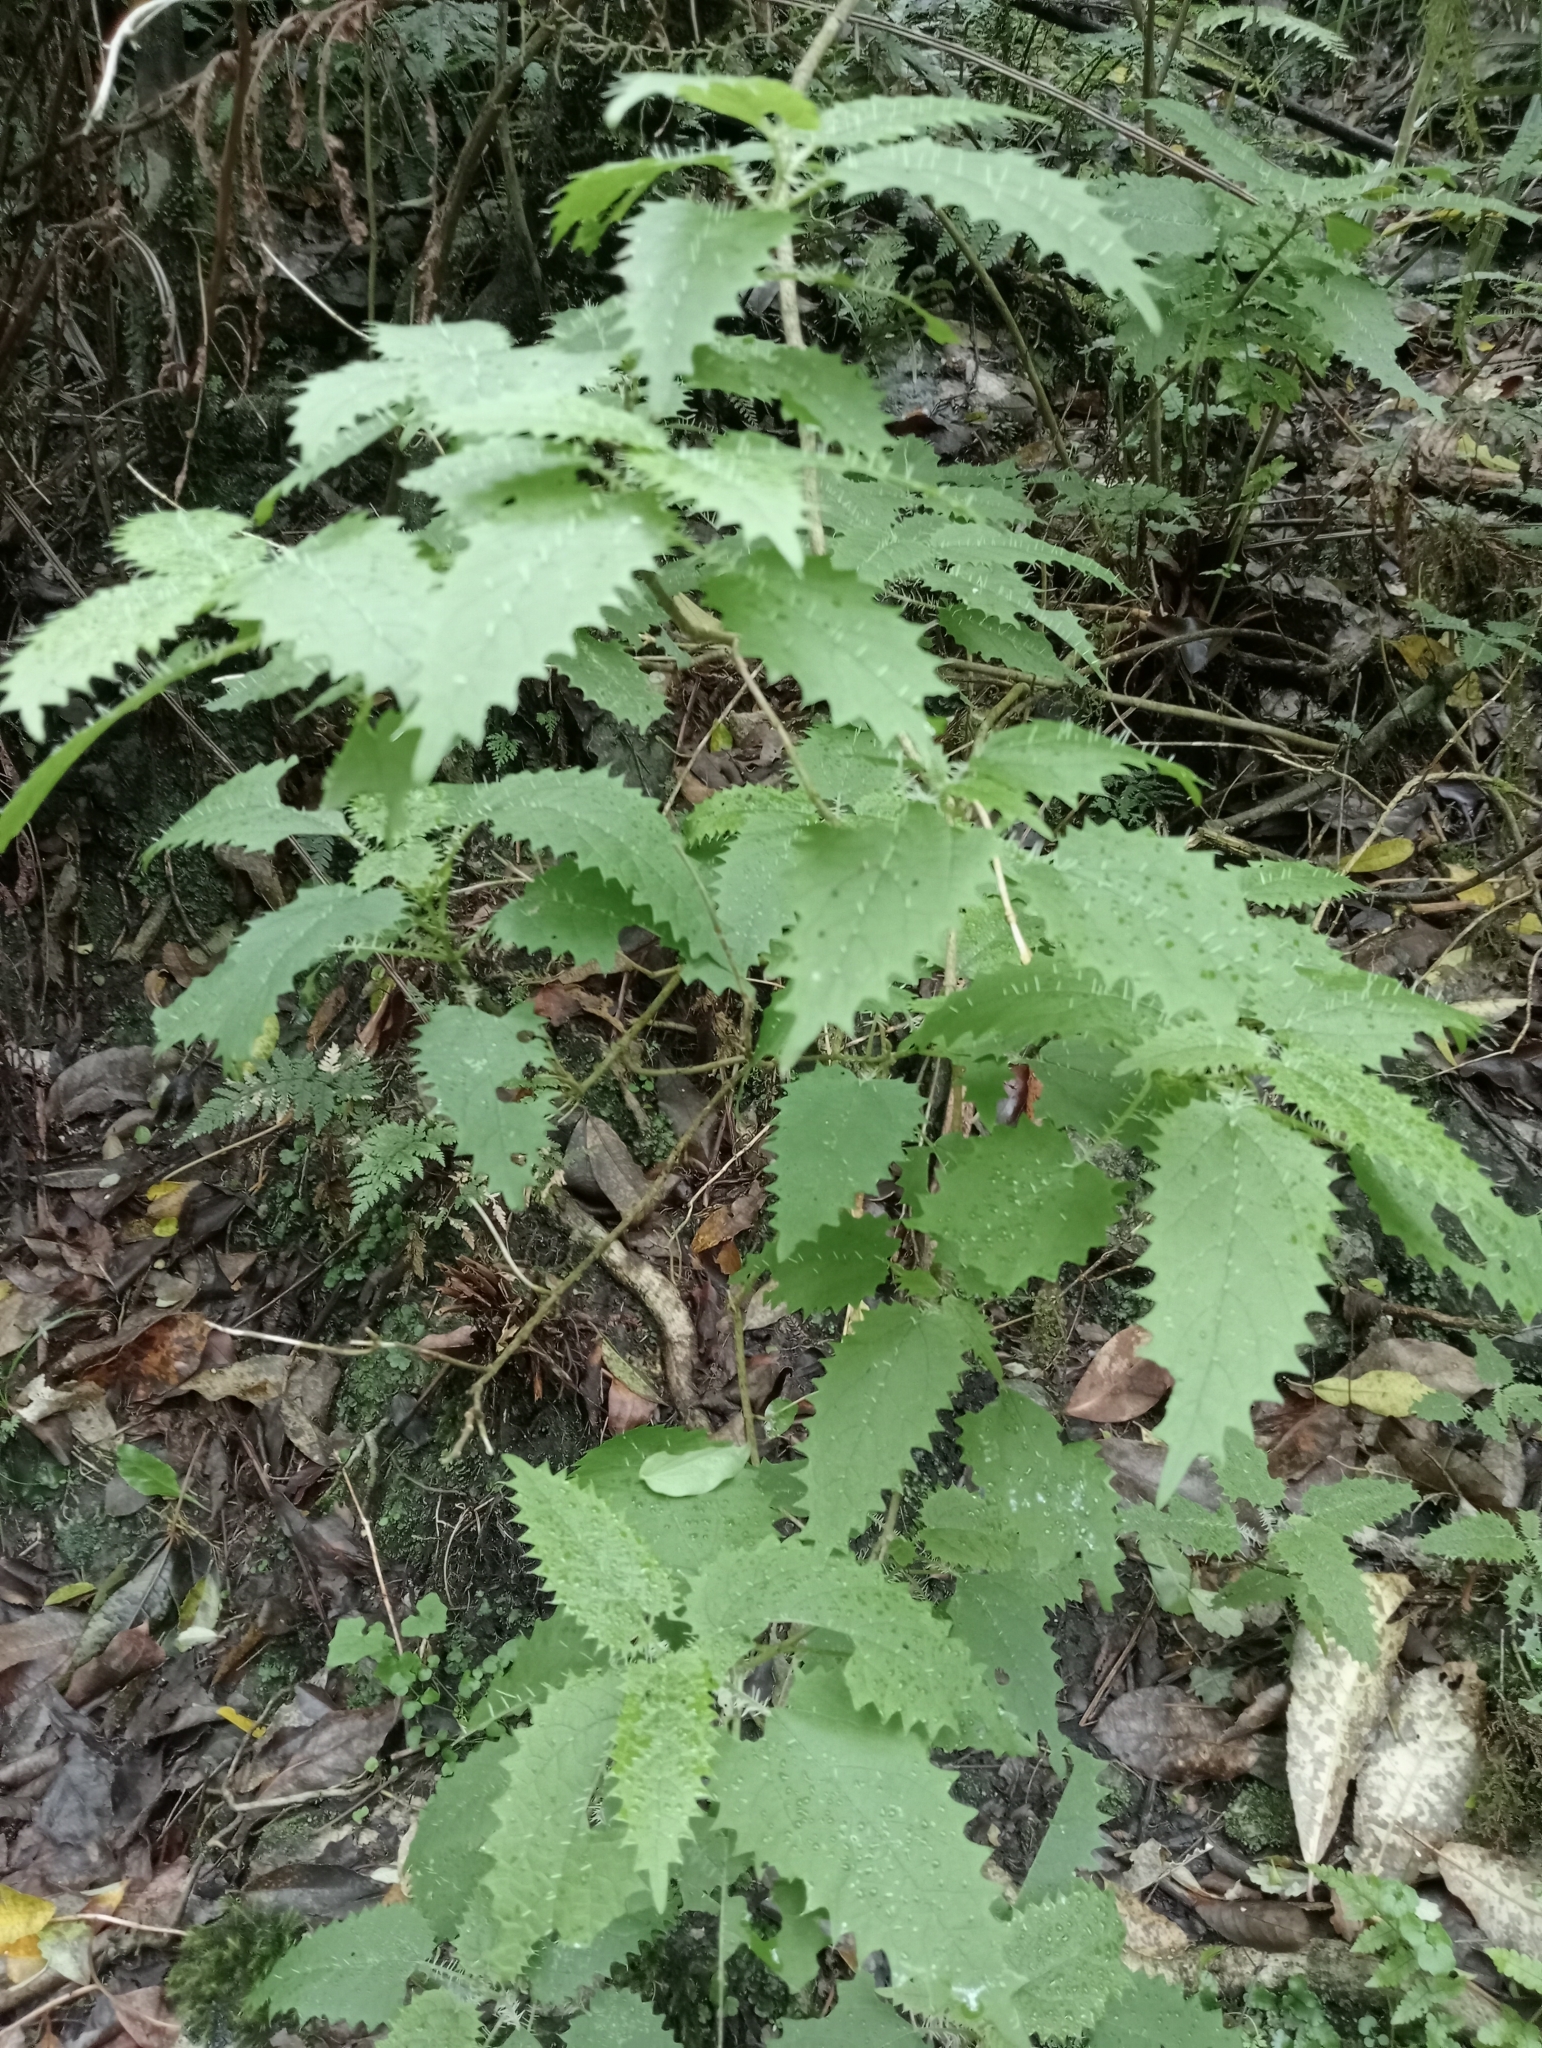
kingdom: Plantae
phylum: Tracheophyta
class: Magnoliopsida
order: Rosales
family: Urticaceae
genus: Urtica
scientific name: Urtica ferox
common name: Tree nettle
